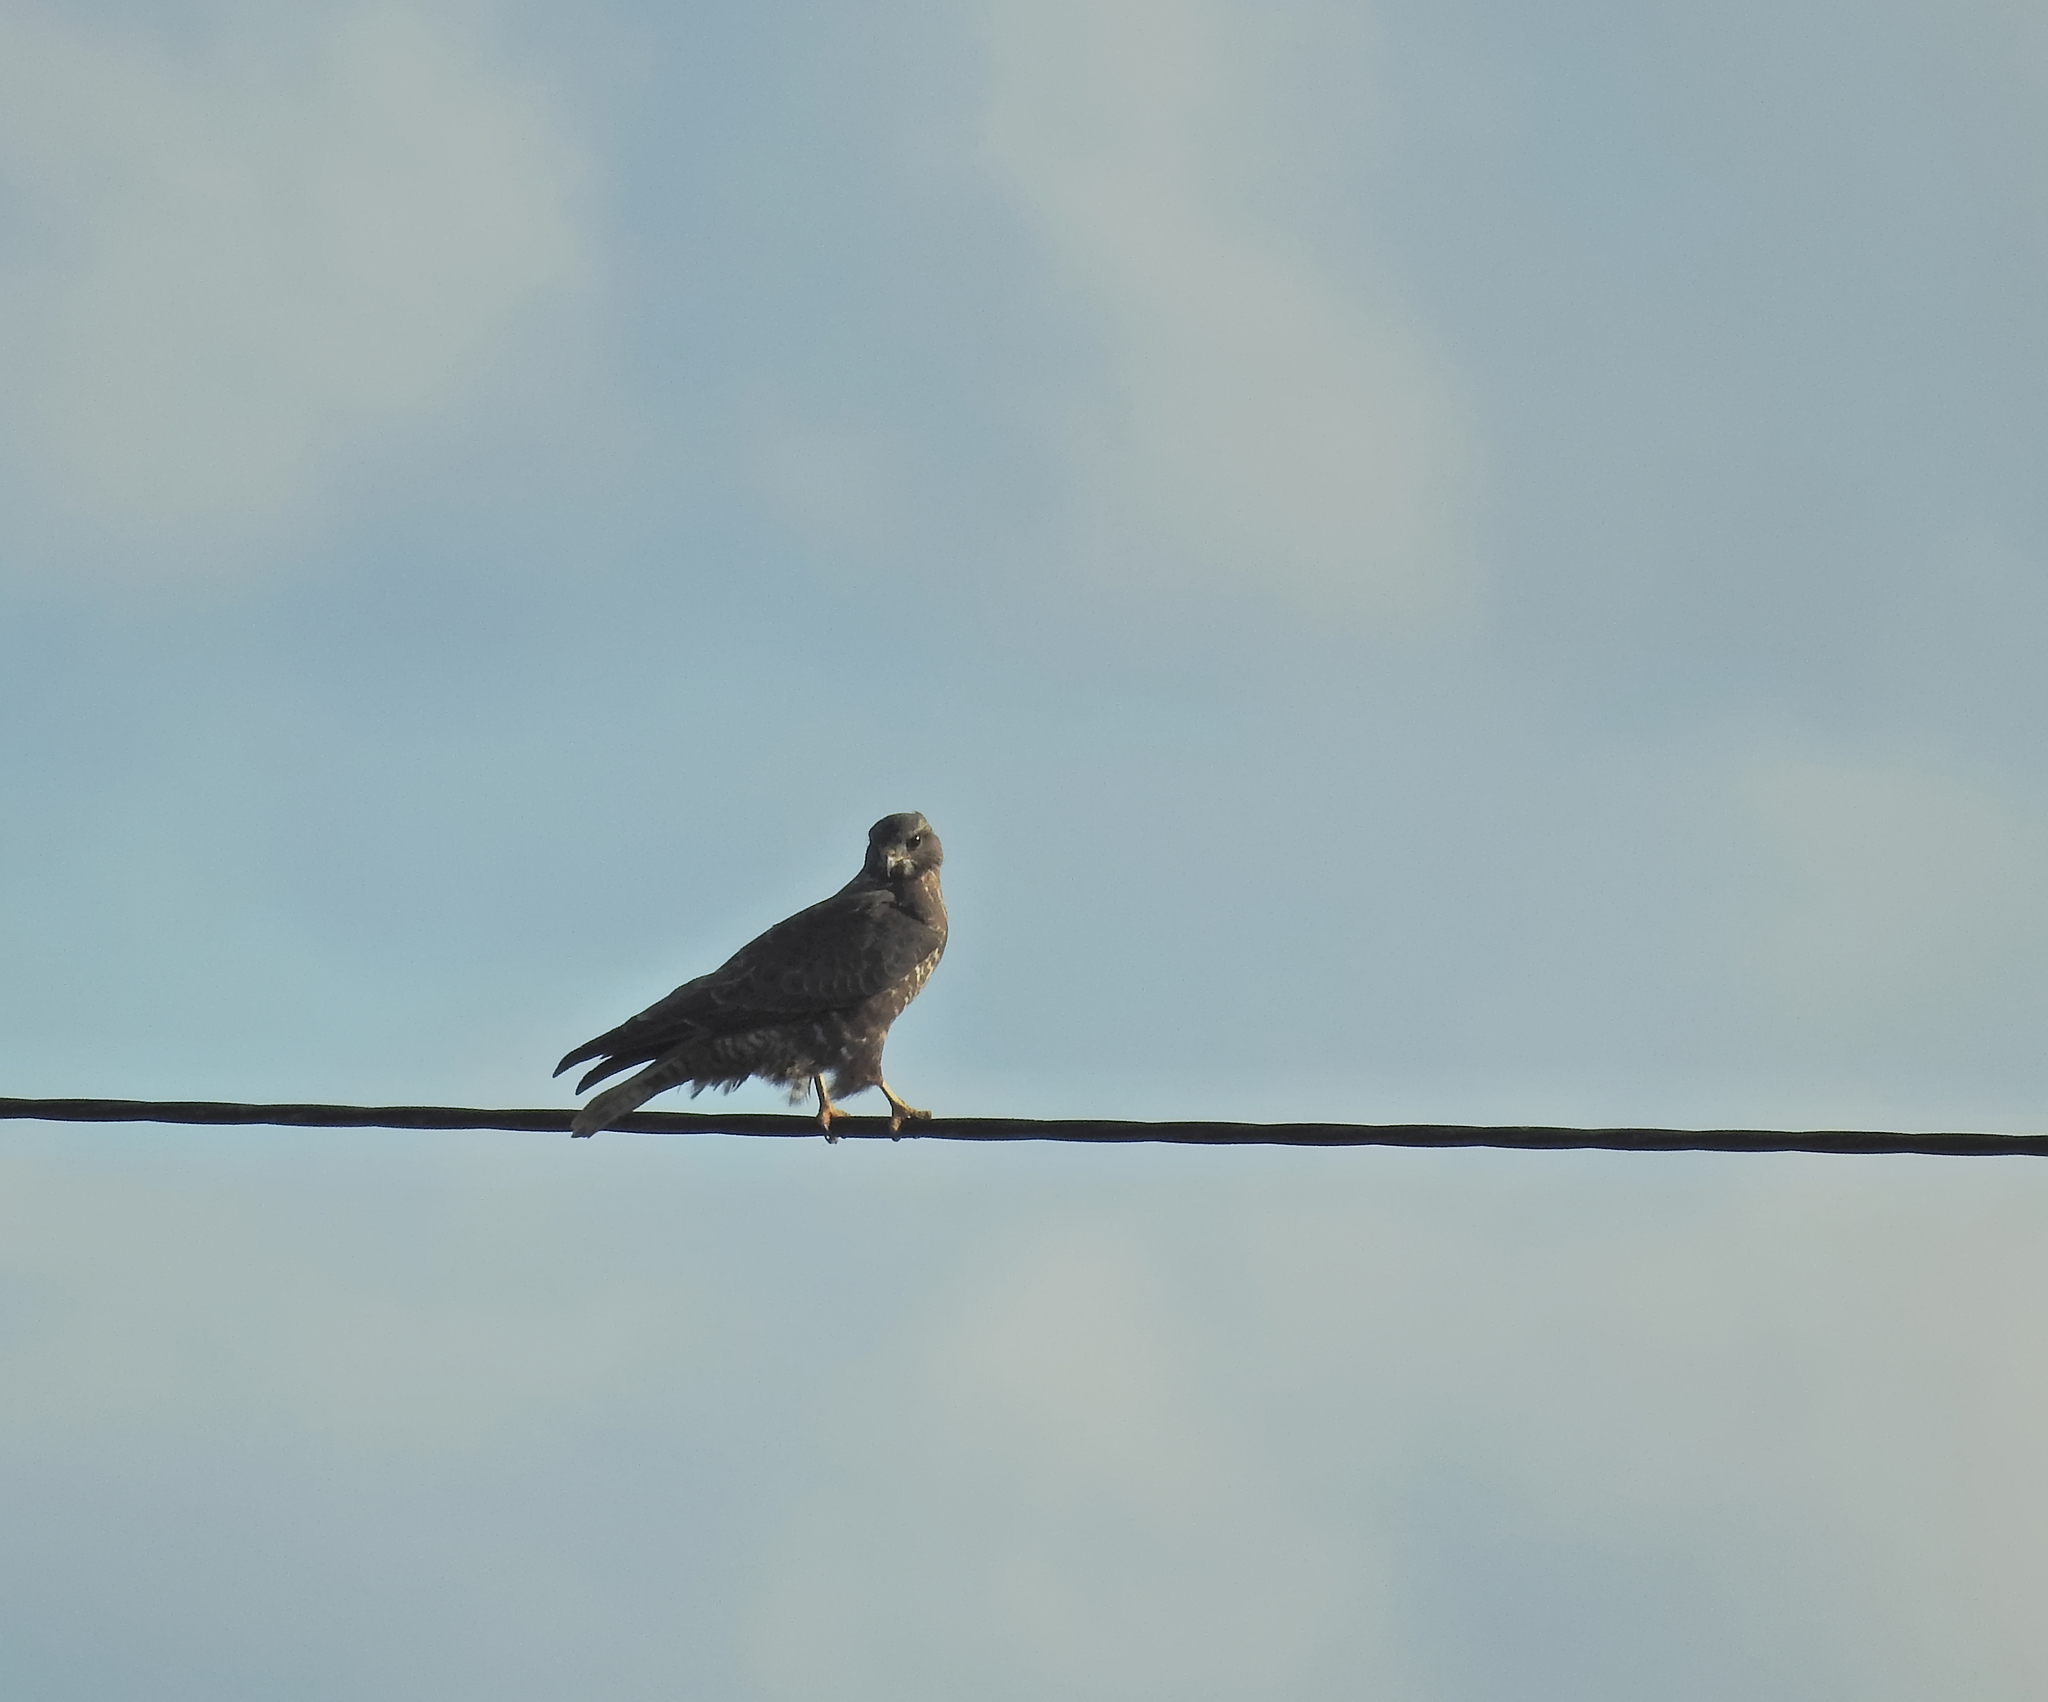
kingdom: Animalia
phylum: Chordata
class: Aves
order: Accipitriformes
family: Accipitridae
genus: Buteo
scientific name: Buteo buteo
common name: Common buzzard
